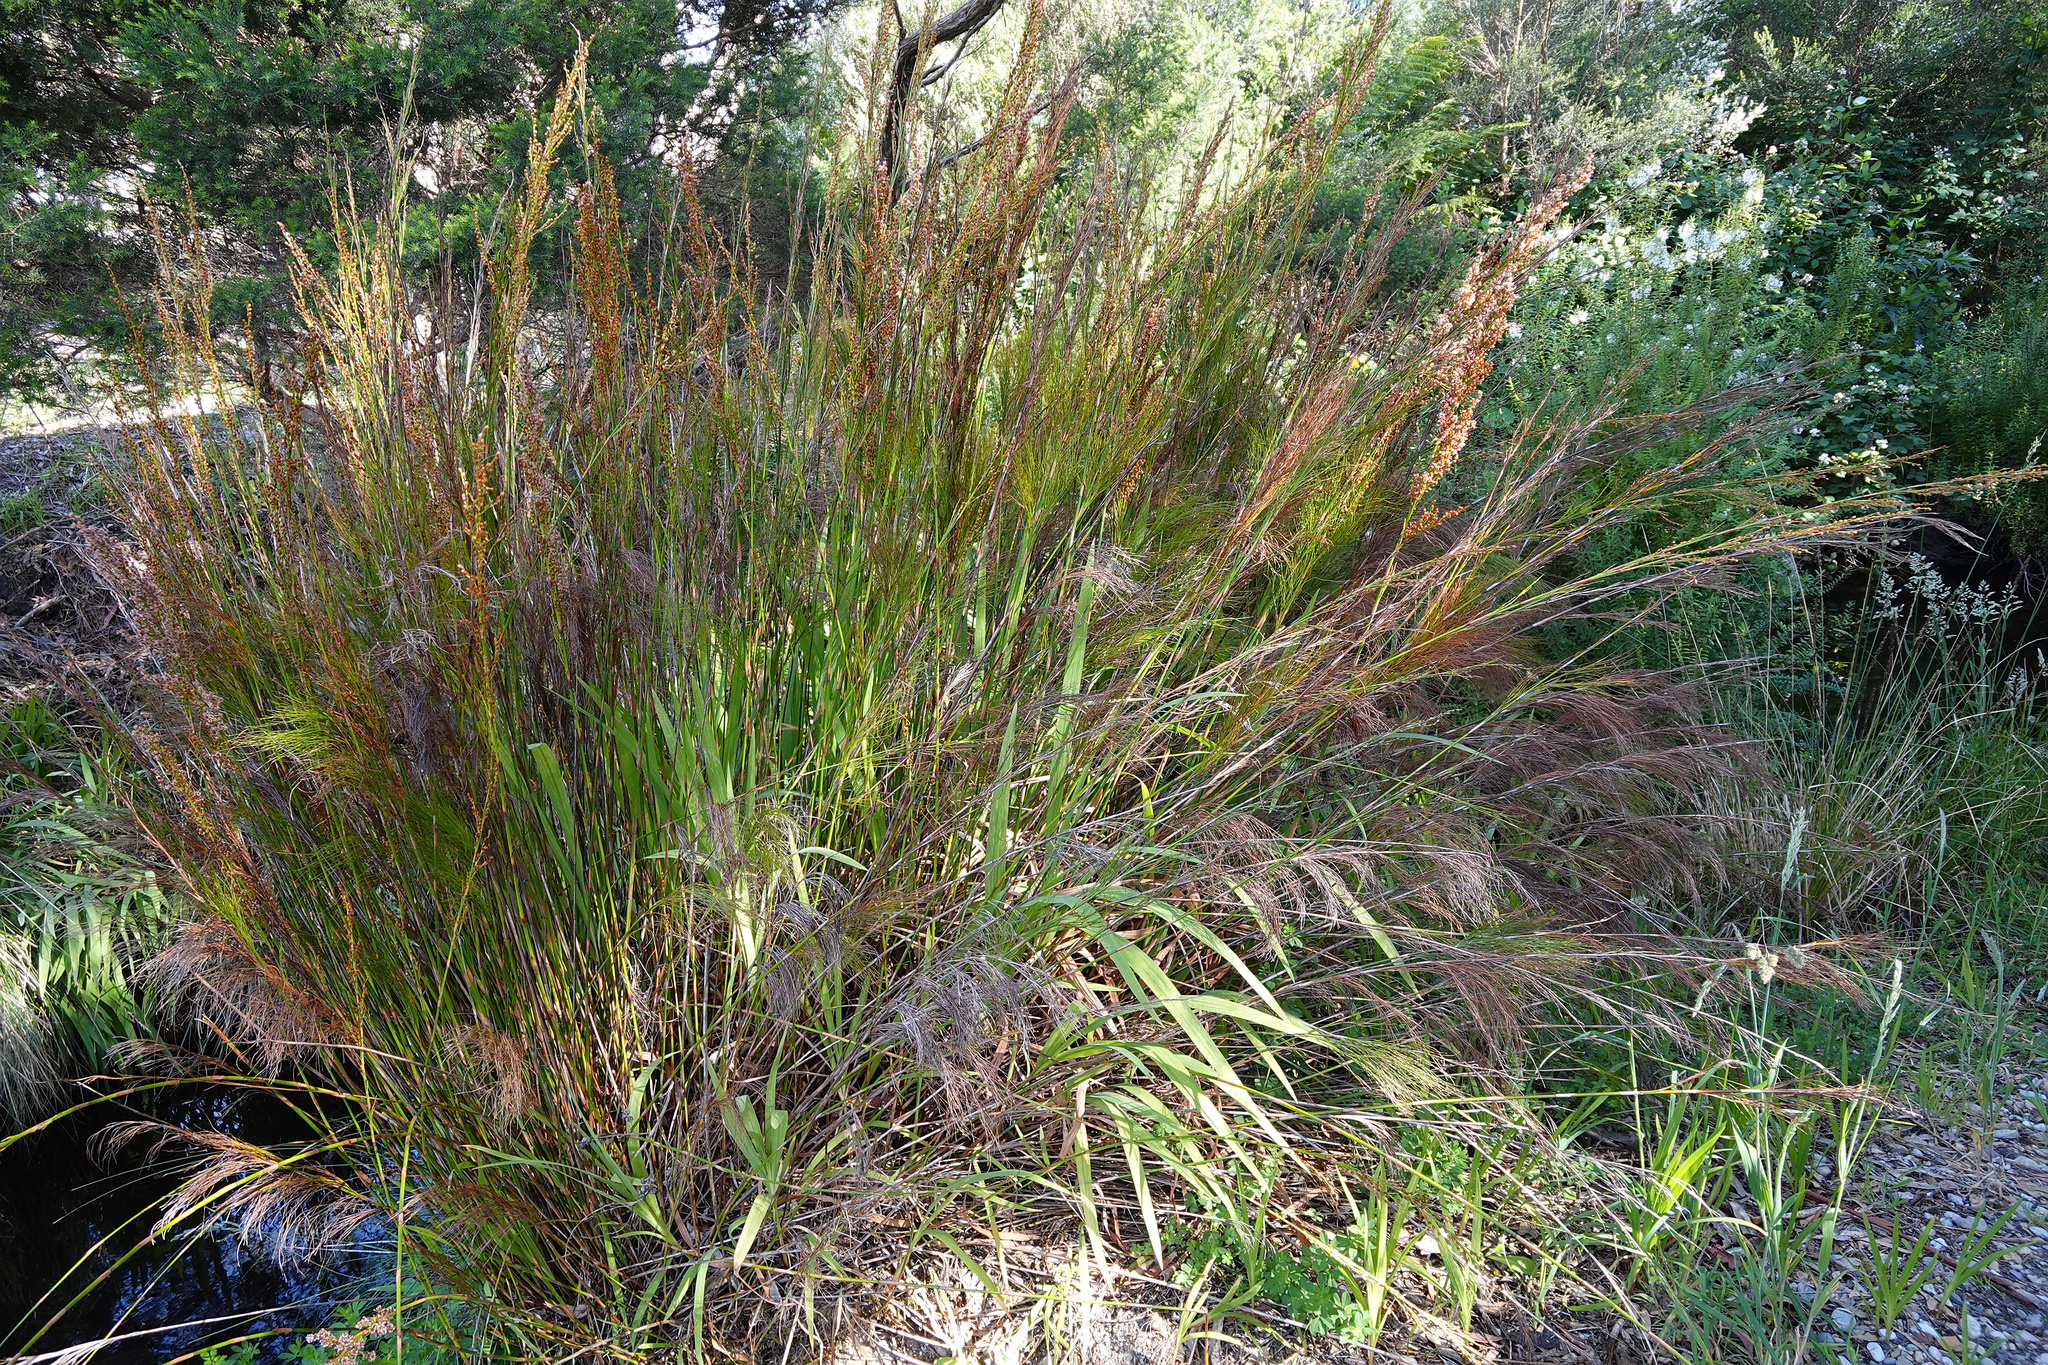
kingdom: Plantae
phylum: Tracheophyta
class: Liliopsida
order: Poales
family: Restionaceae
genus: Baloskion
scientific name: Baloskion tetraphyllum
